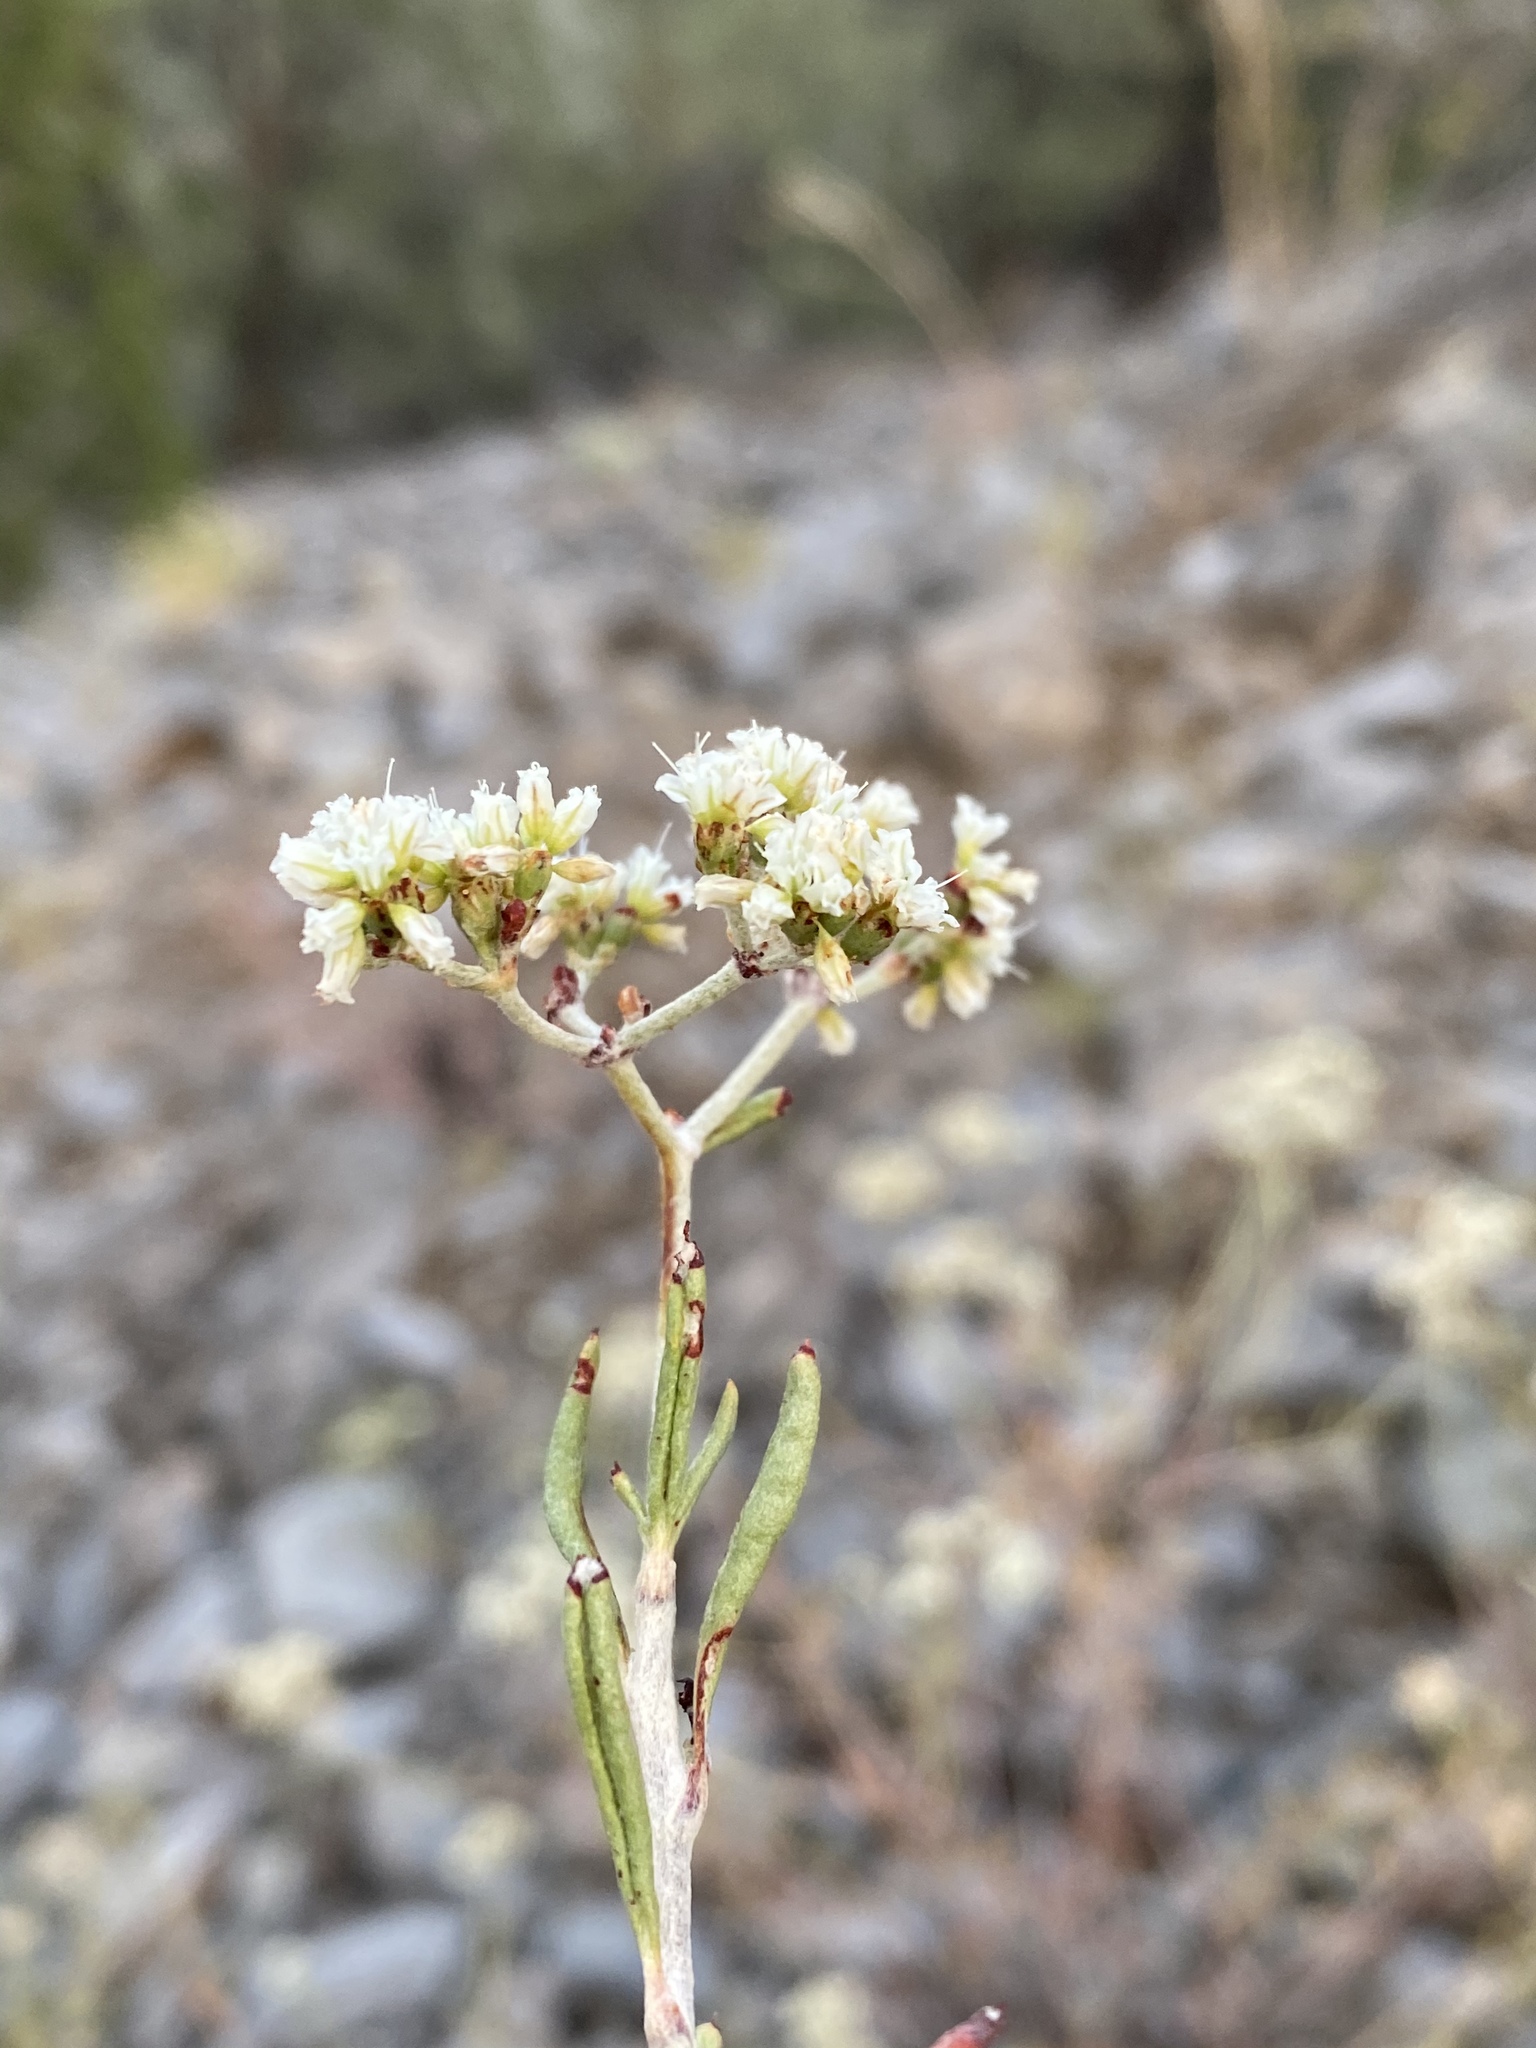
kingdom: Plantae
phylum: Tracheophyta
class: Magnoliopsida
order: Caryophyllales
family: Polygonaceae
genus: Eriogonum
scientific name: Eriogonum microtheca
